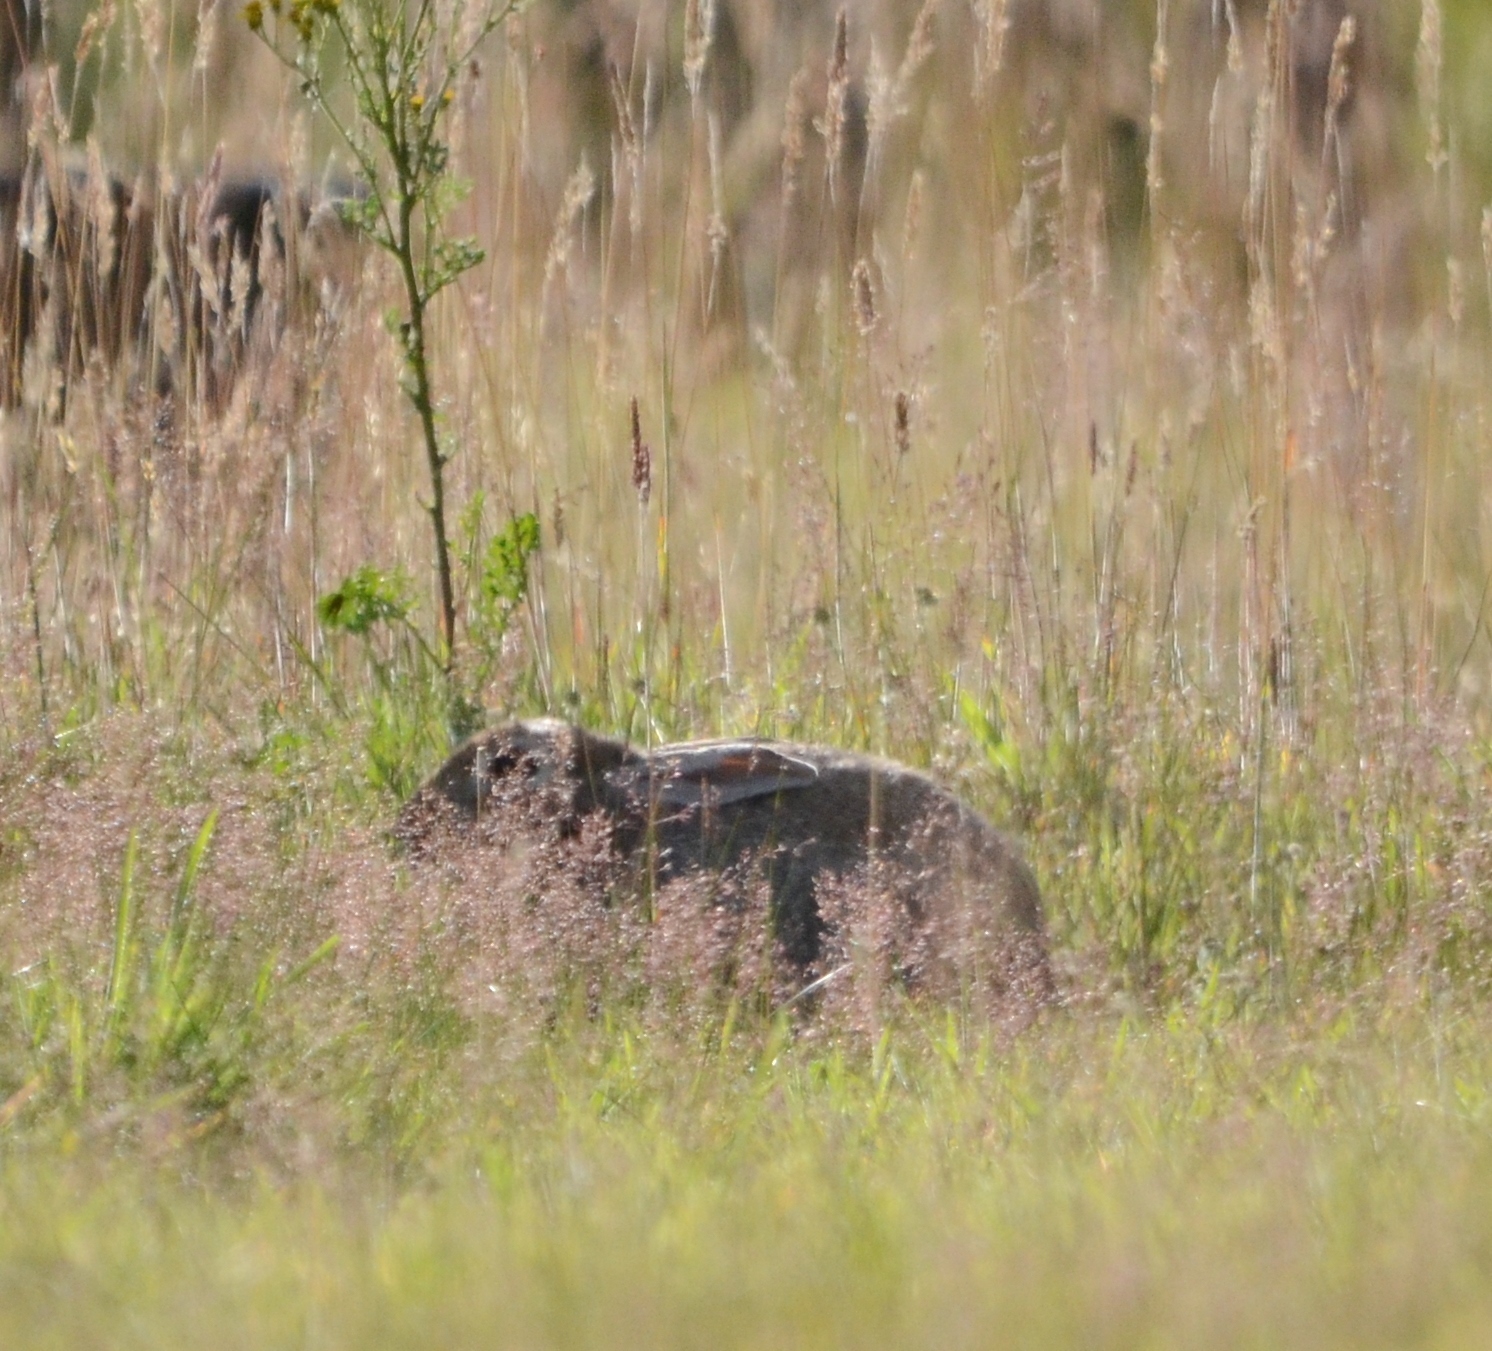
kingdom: Animalia
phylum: Chordata
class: Mammalia
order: Lagomorpha
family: Leporidae
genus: Lepus
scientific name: Lepus europaeus
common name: European hare
